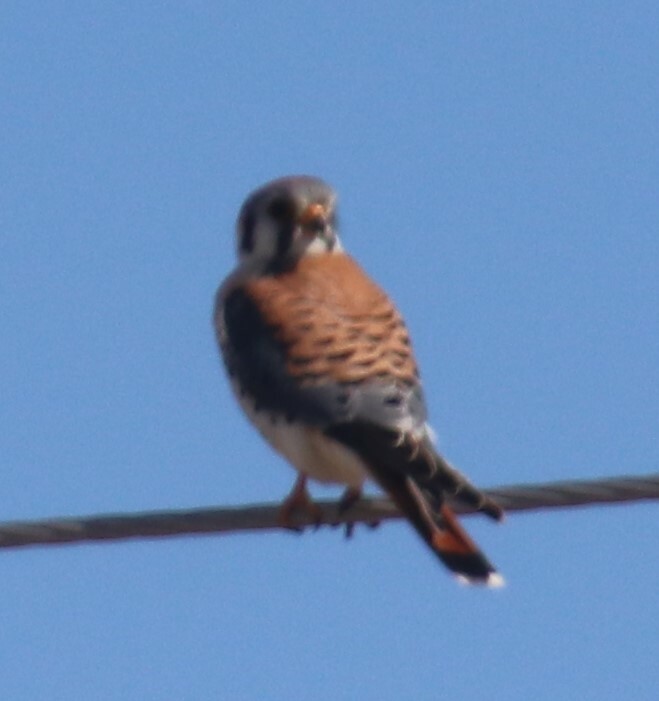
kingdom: Animalia
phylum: Chordata
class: Aves
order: Falconiformes
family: Falconidae
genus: Falco
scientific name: Falco sparverius
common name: American kestrel
